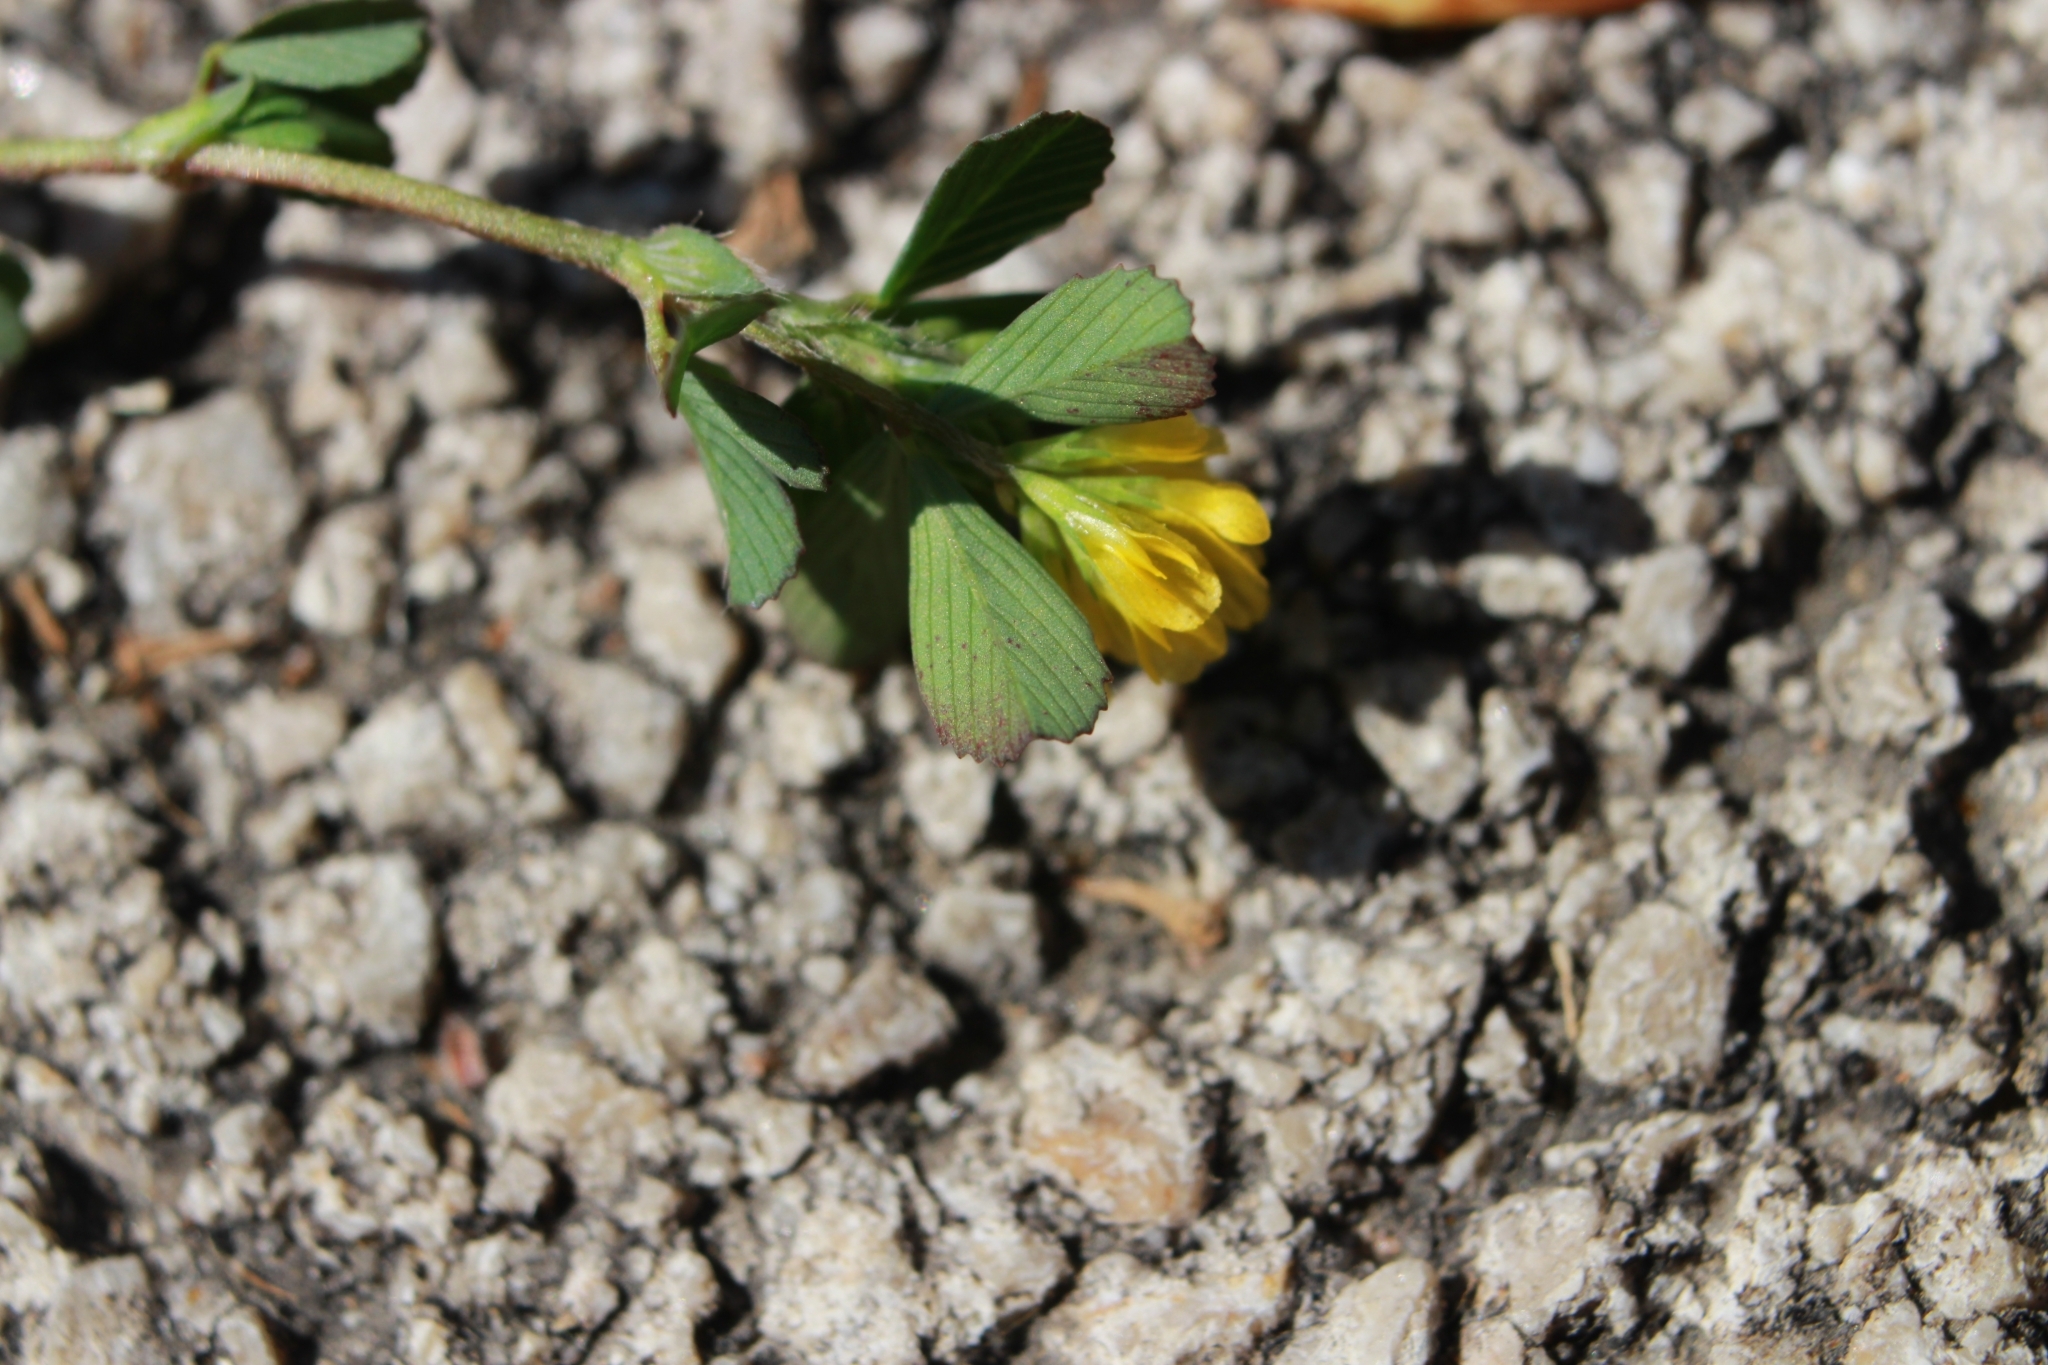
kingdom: Plantae
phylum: Tracheophyta
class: Magnoliopsida
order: Fabales
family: Fabaceae
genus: Trifolium
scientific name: Trifolium dubium
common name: Suckling clover
